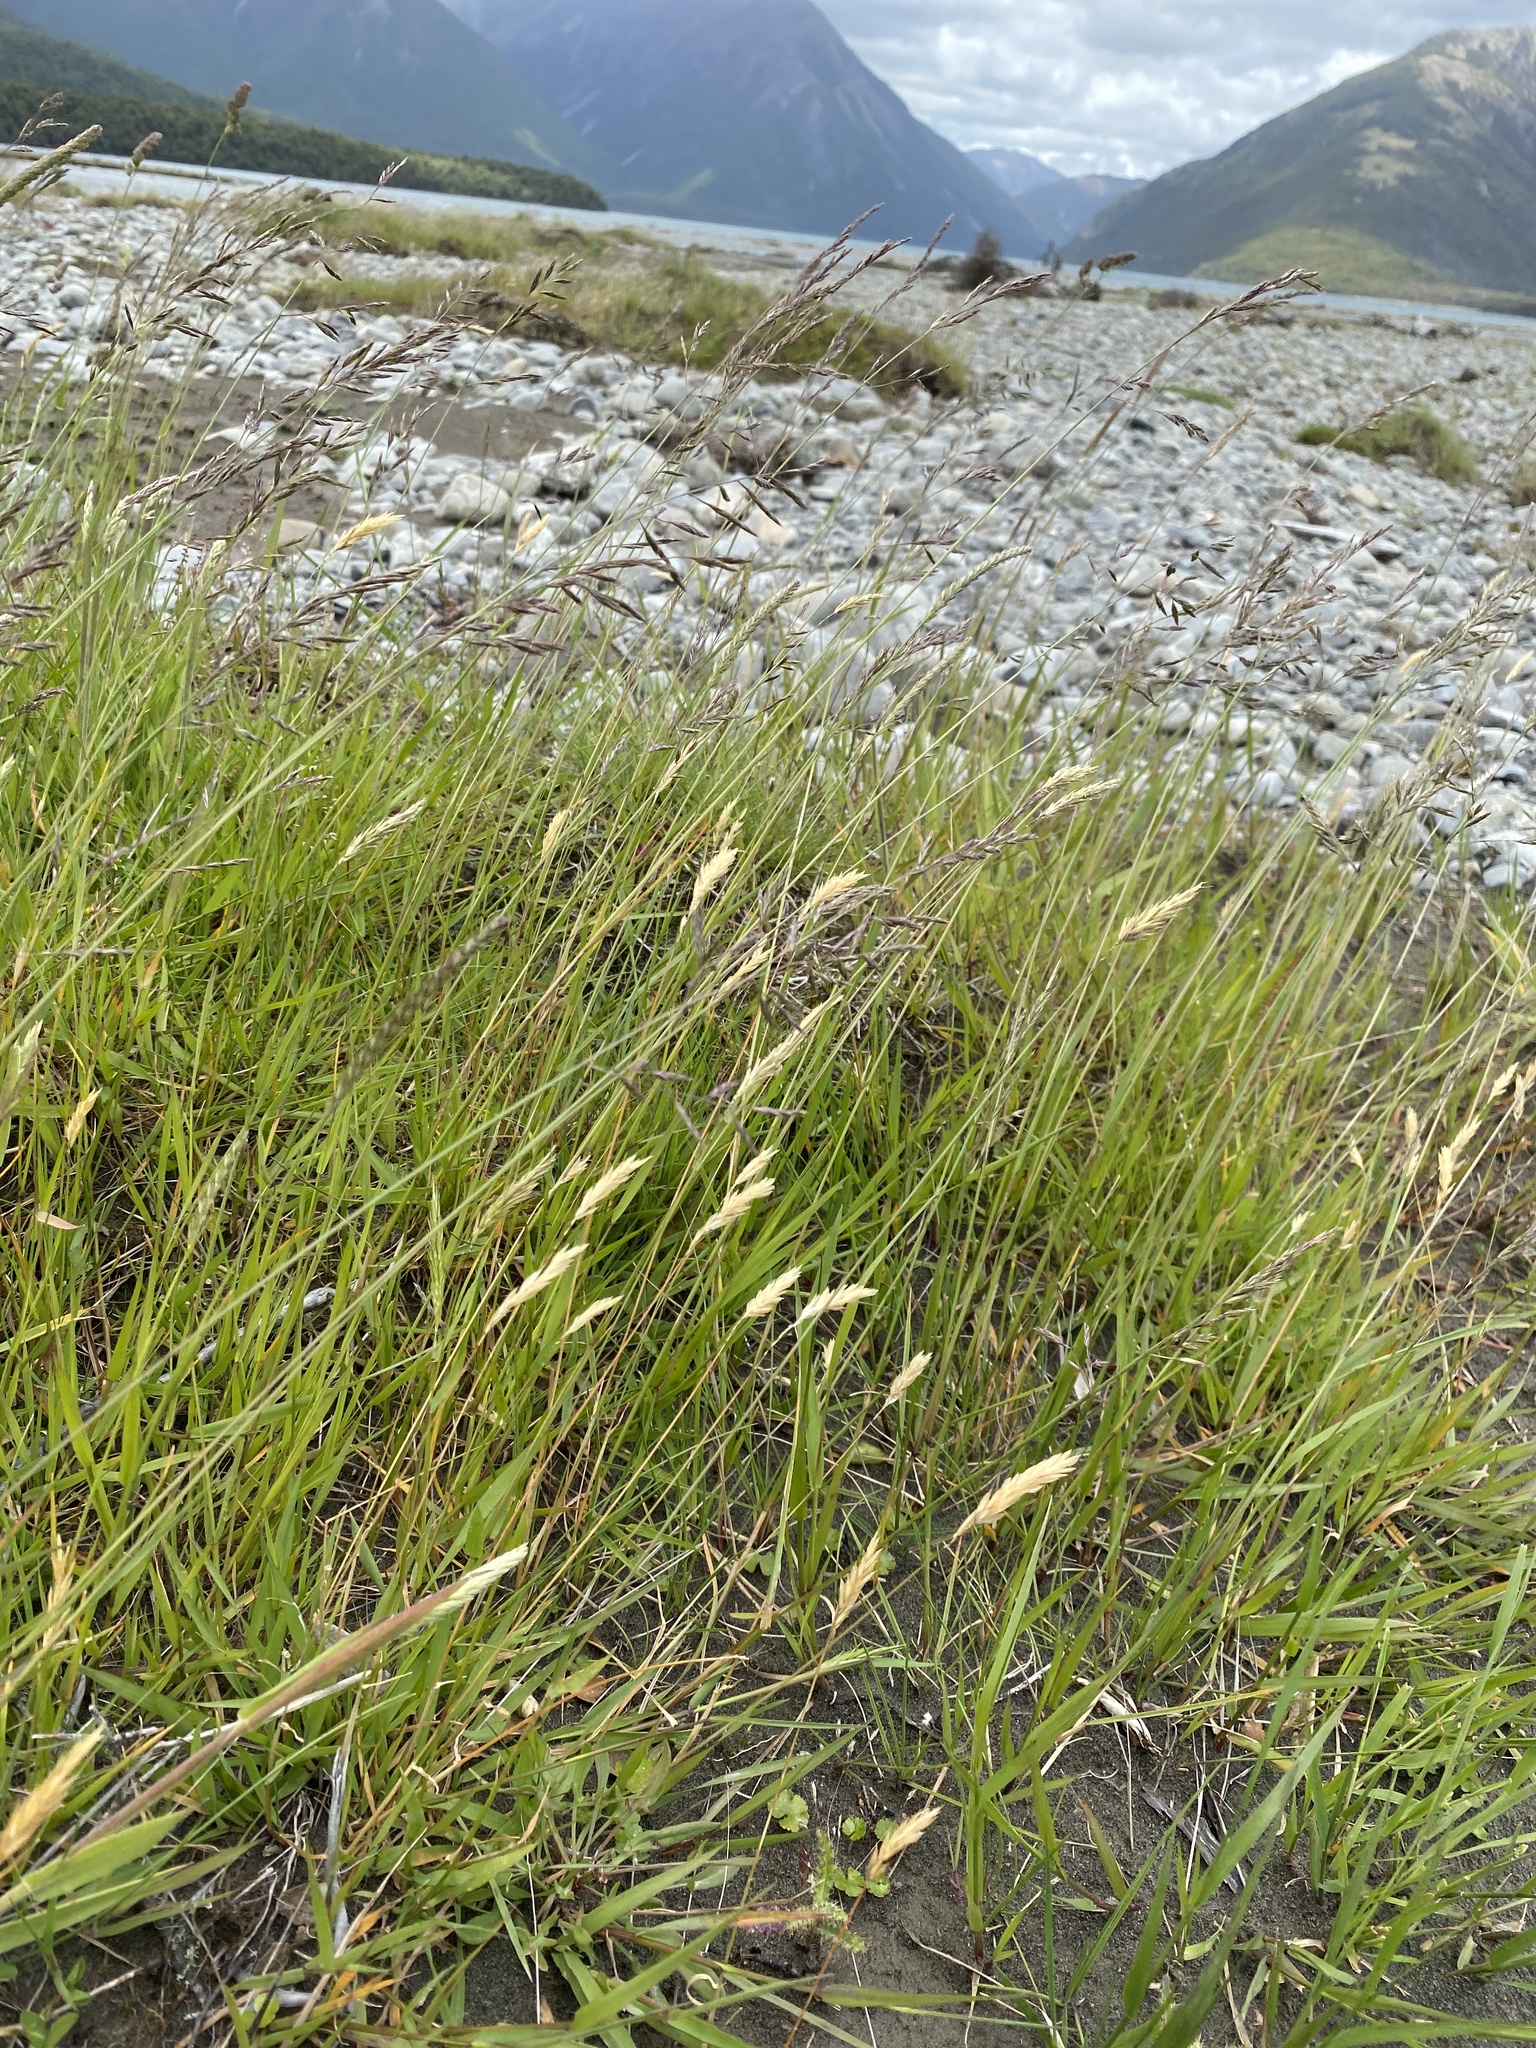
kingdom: Plantae
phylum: Tracheophyta
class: Liliopsida
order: Poales
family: Poaceae
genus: Anthoxanthum
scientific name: Anthoxanthum odoratum
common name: Sweet vernalgrass
